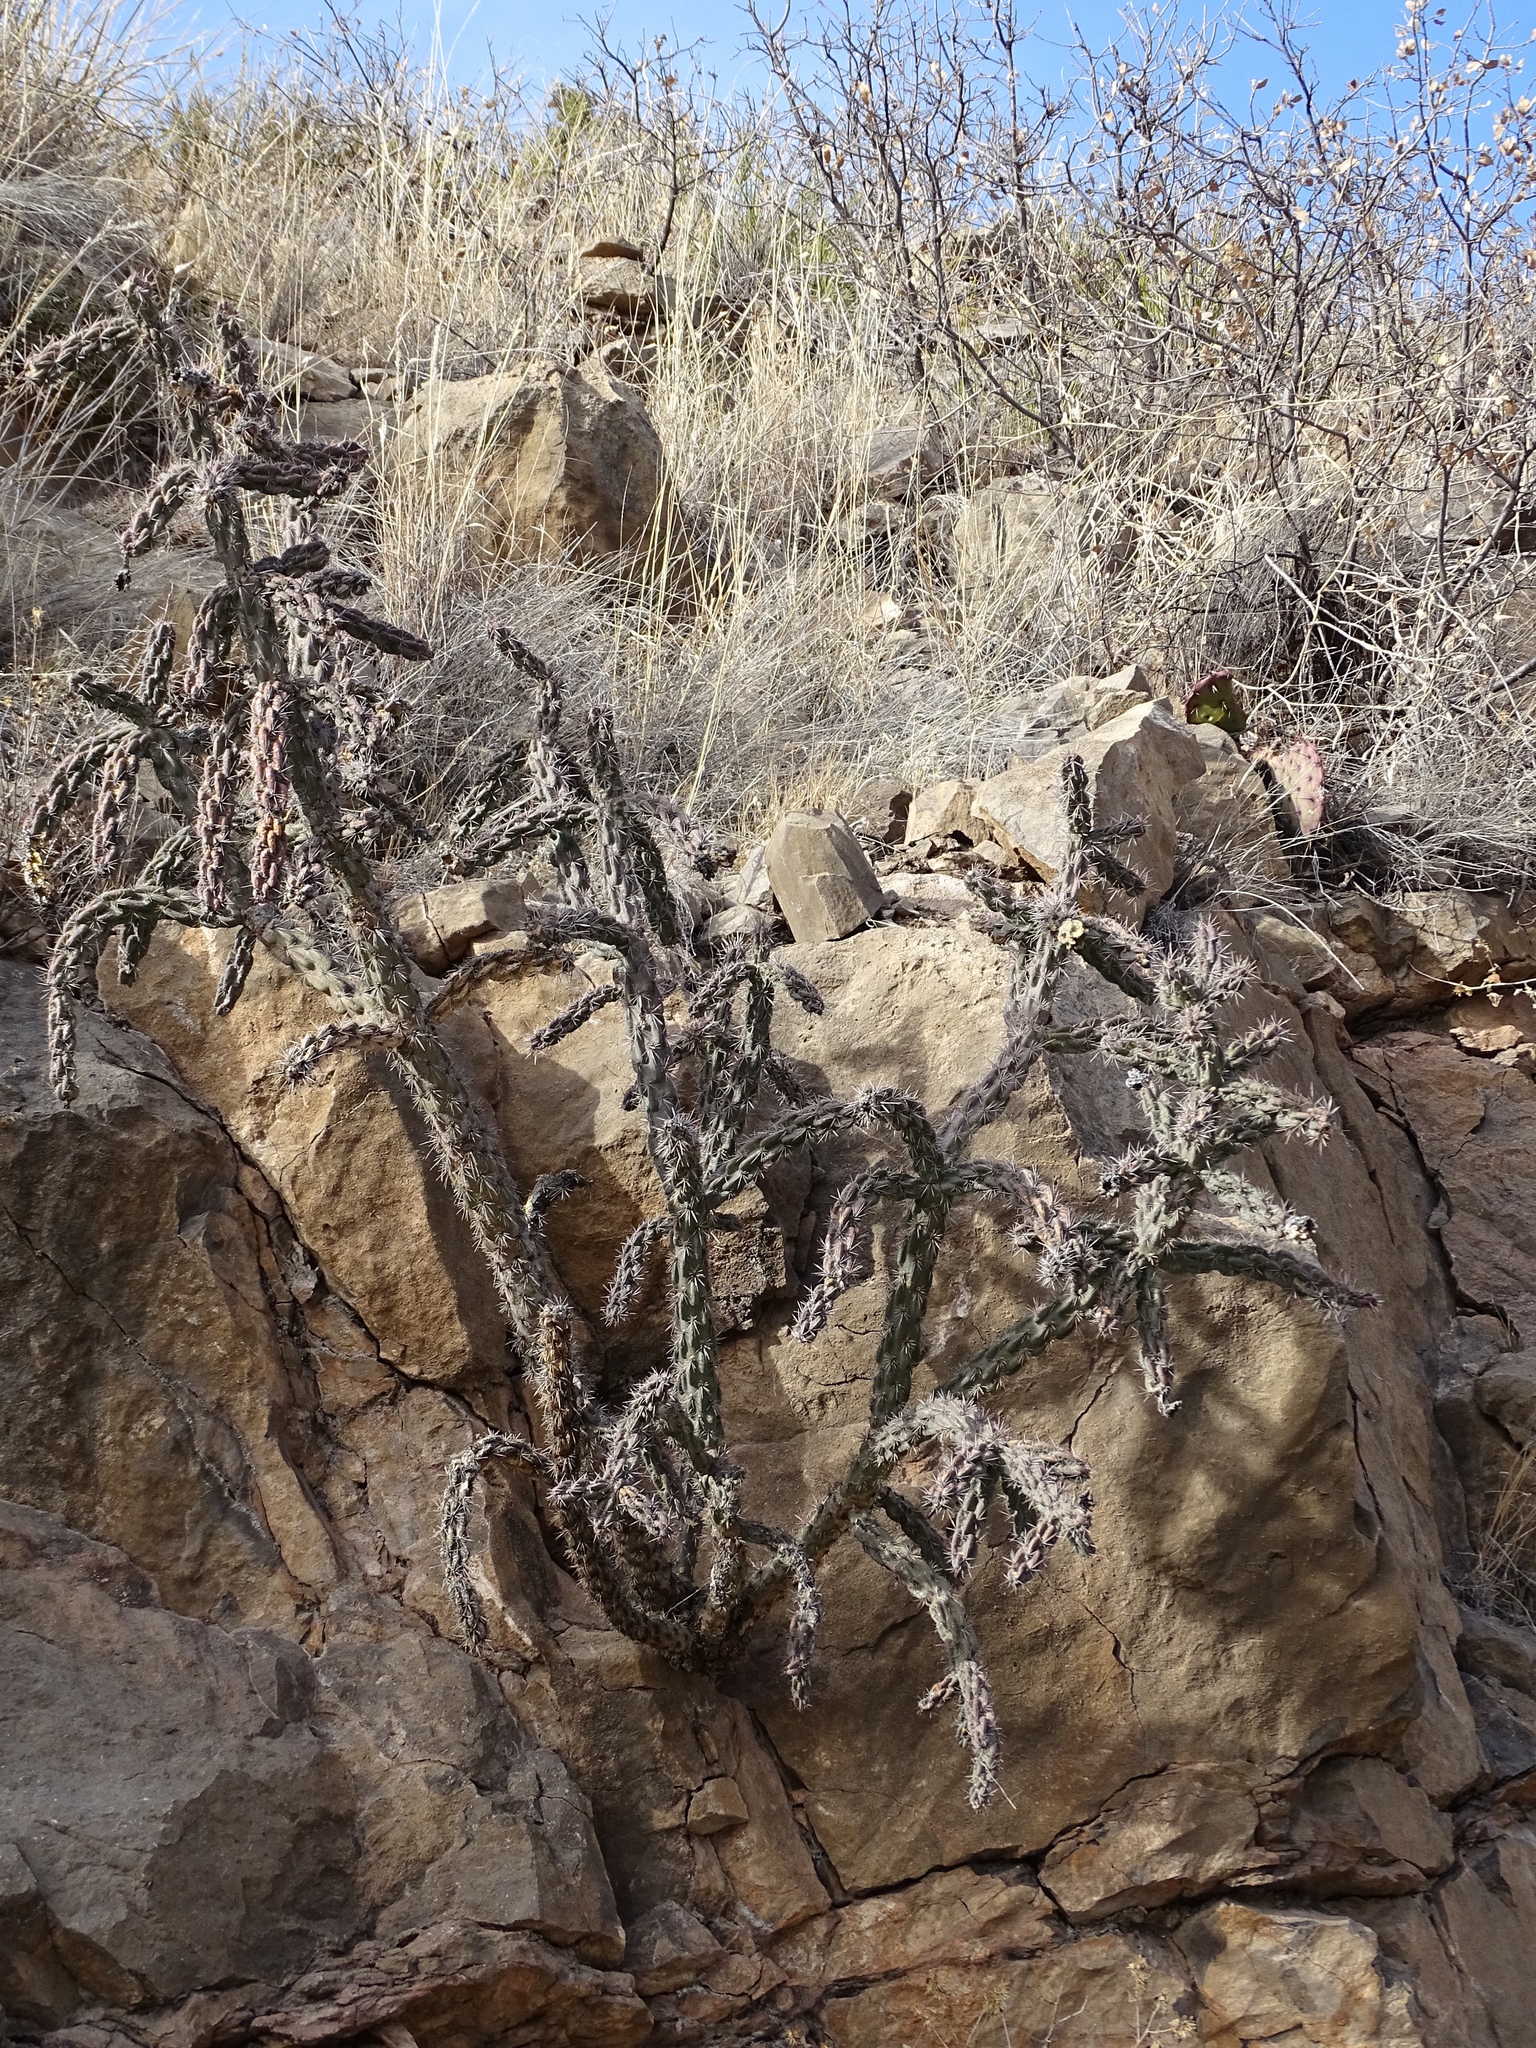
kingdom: Plantae
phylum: Tracheophyta
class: Magnoliopsida
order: Caryophyllales
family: Cactaceae
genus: Cylindropuntia
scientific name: Cylindropuntia imbricata
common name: Candelabrum cactus
